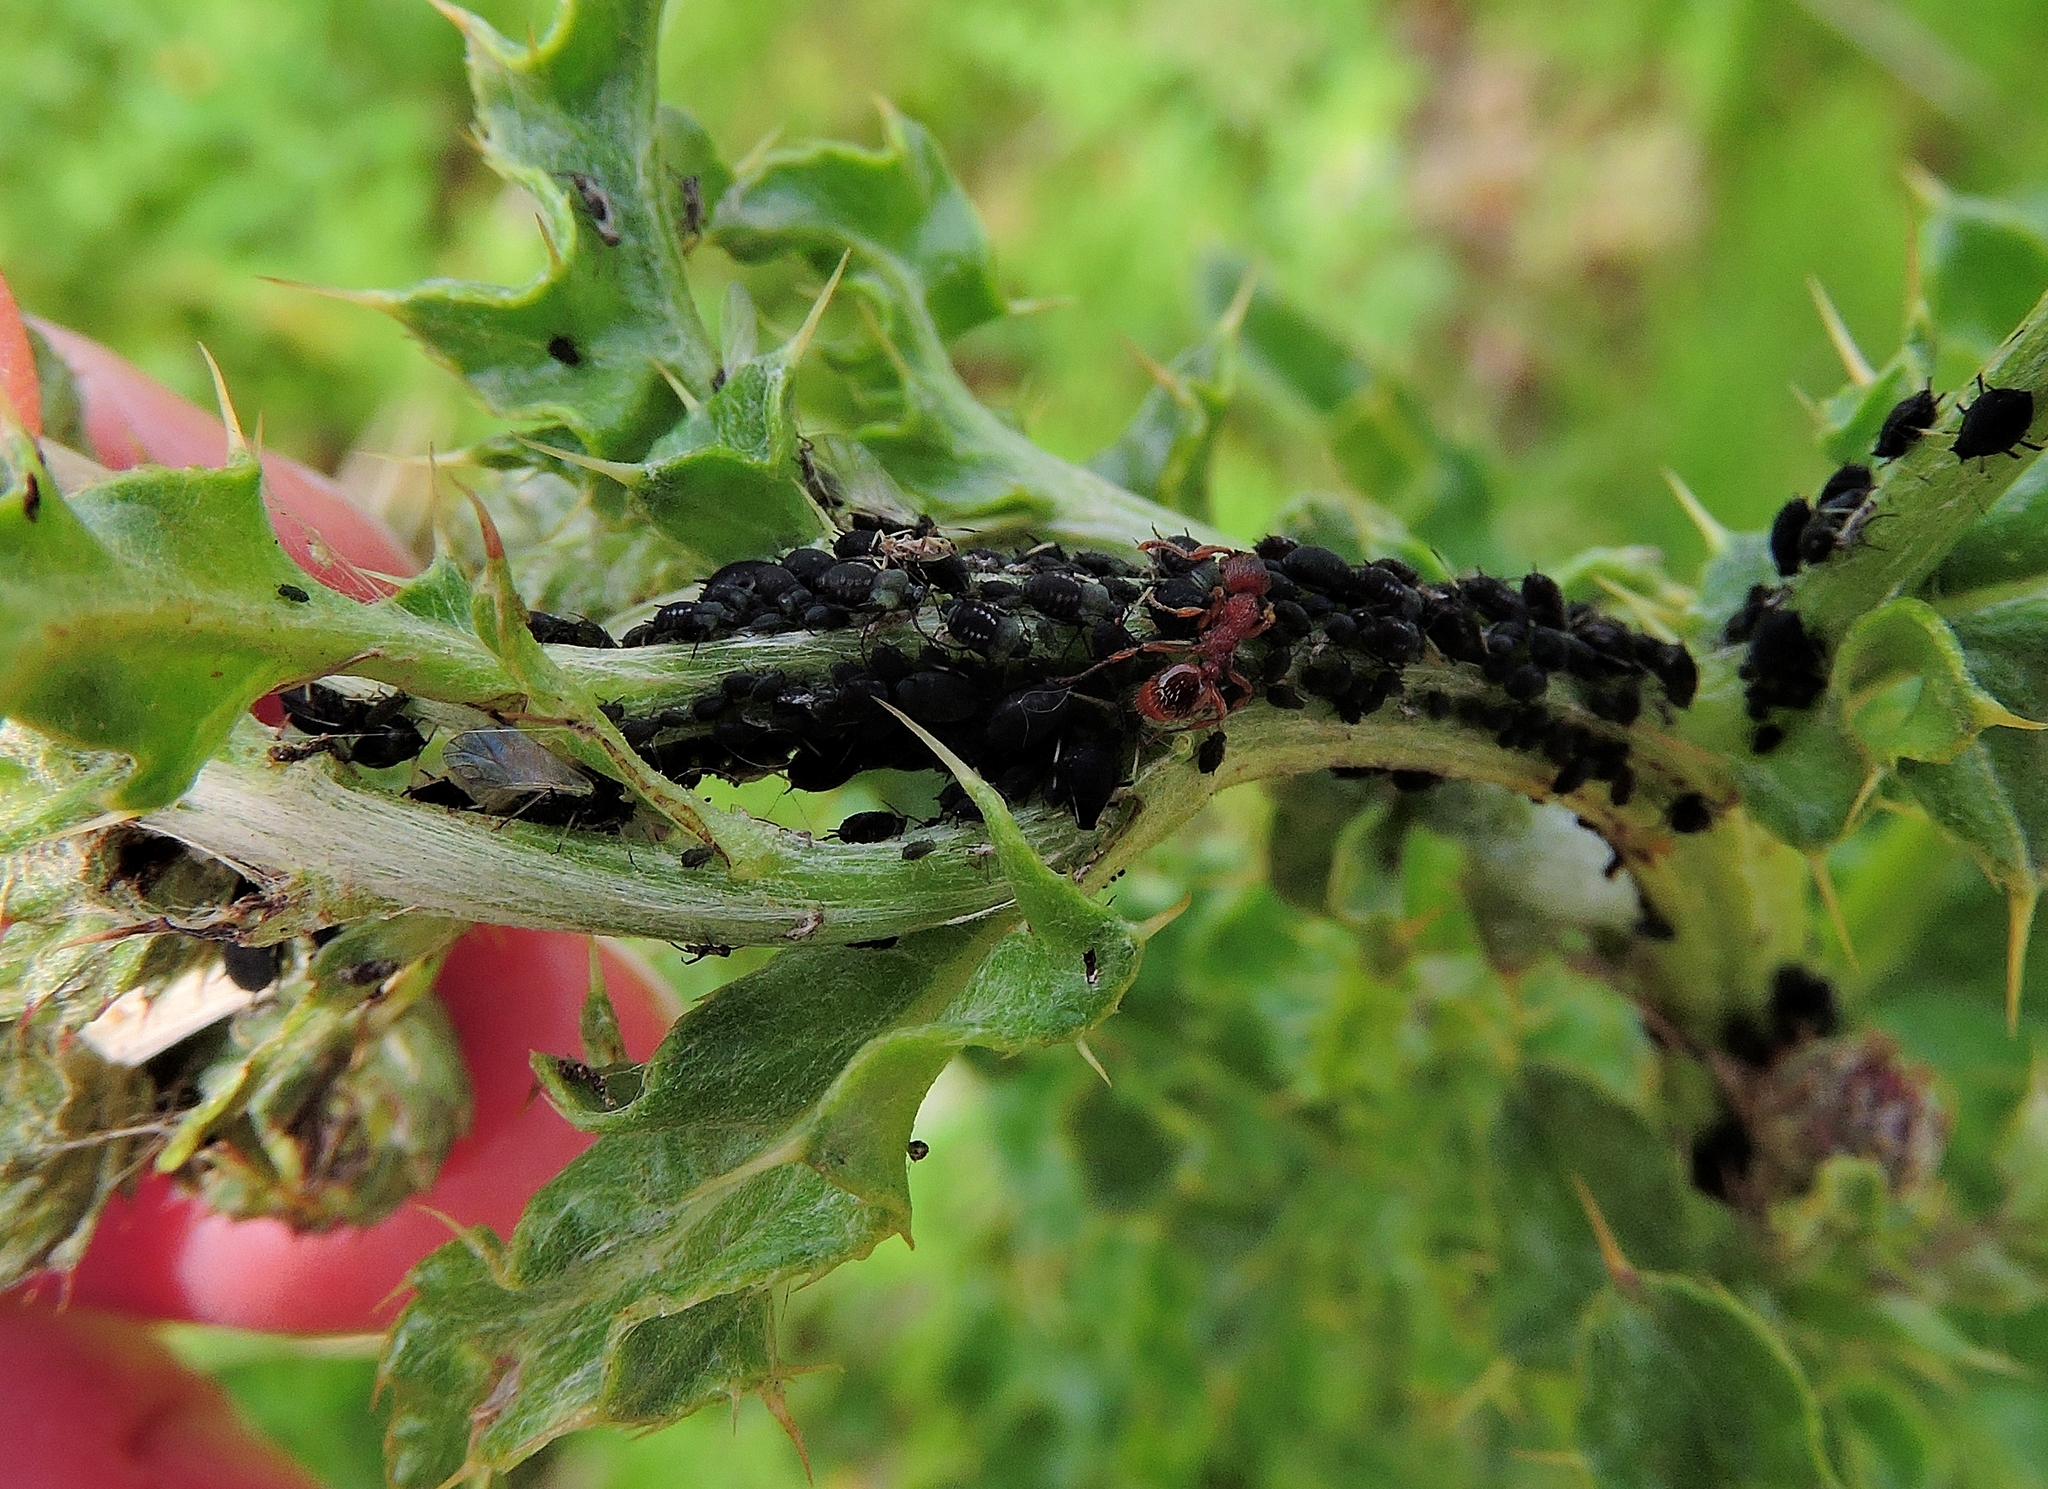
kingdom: Animalia
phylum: Arthropoda
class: Insecta
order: Hemiptera
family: Aphididae
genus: Aphis
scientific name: Aphis fabae
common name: Bean aphid
